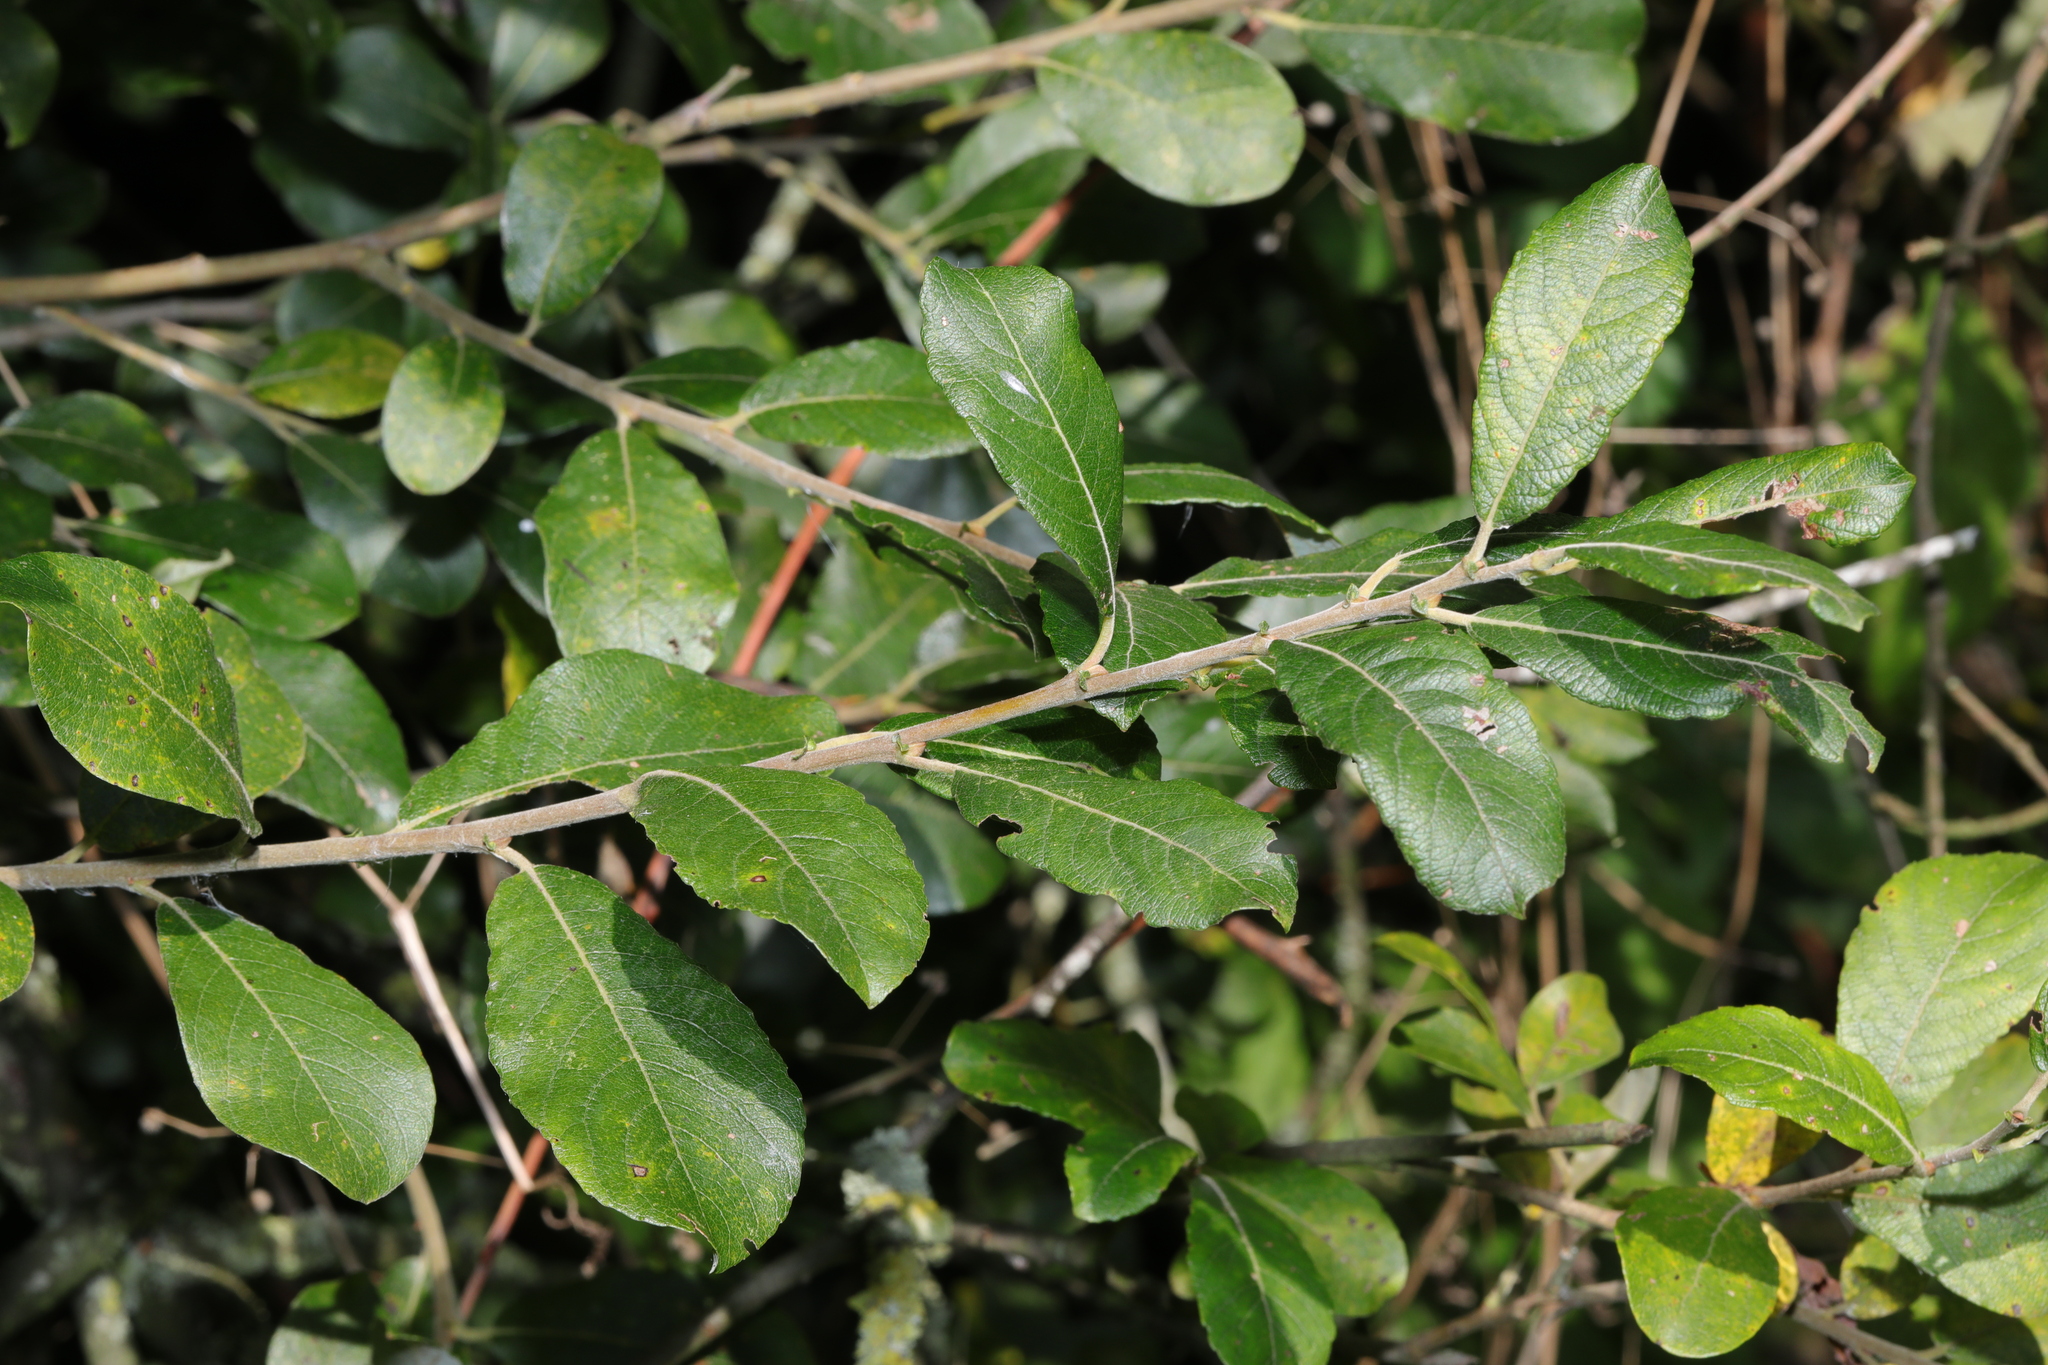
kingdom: Plantae
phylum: Tracheophyta
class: Magnoliopsida
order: Malpighiales
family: Salicaceae
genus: Salix
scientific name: Salix atrocinerea
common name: Rusty willow
